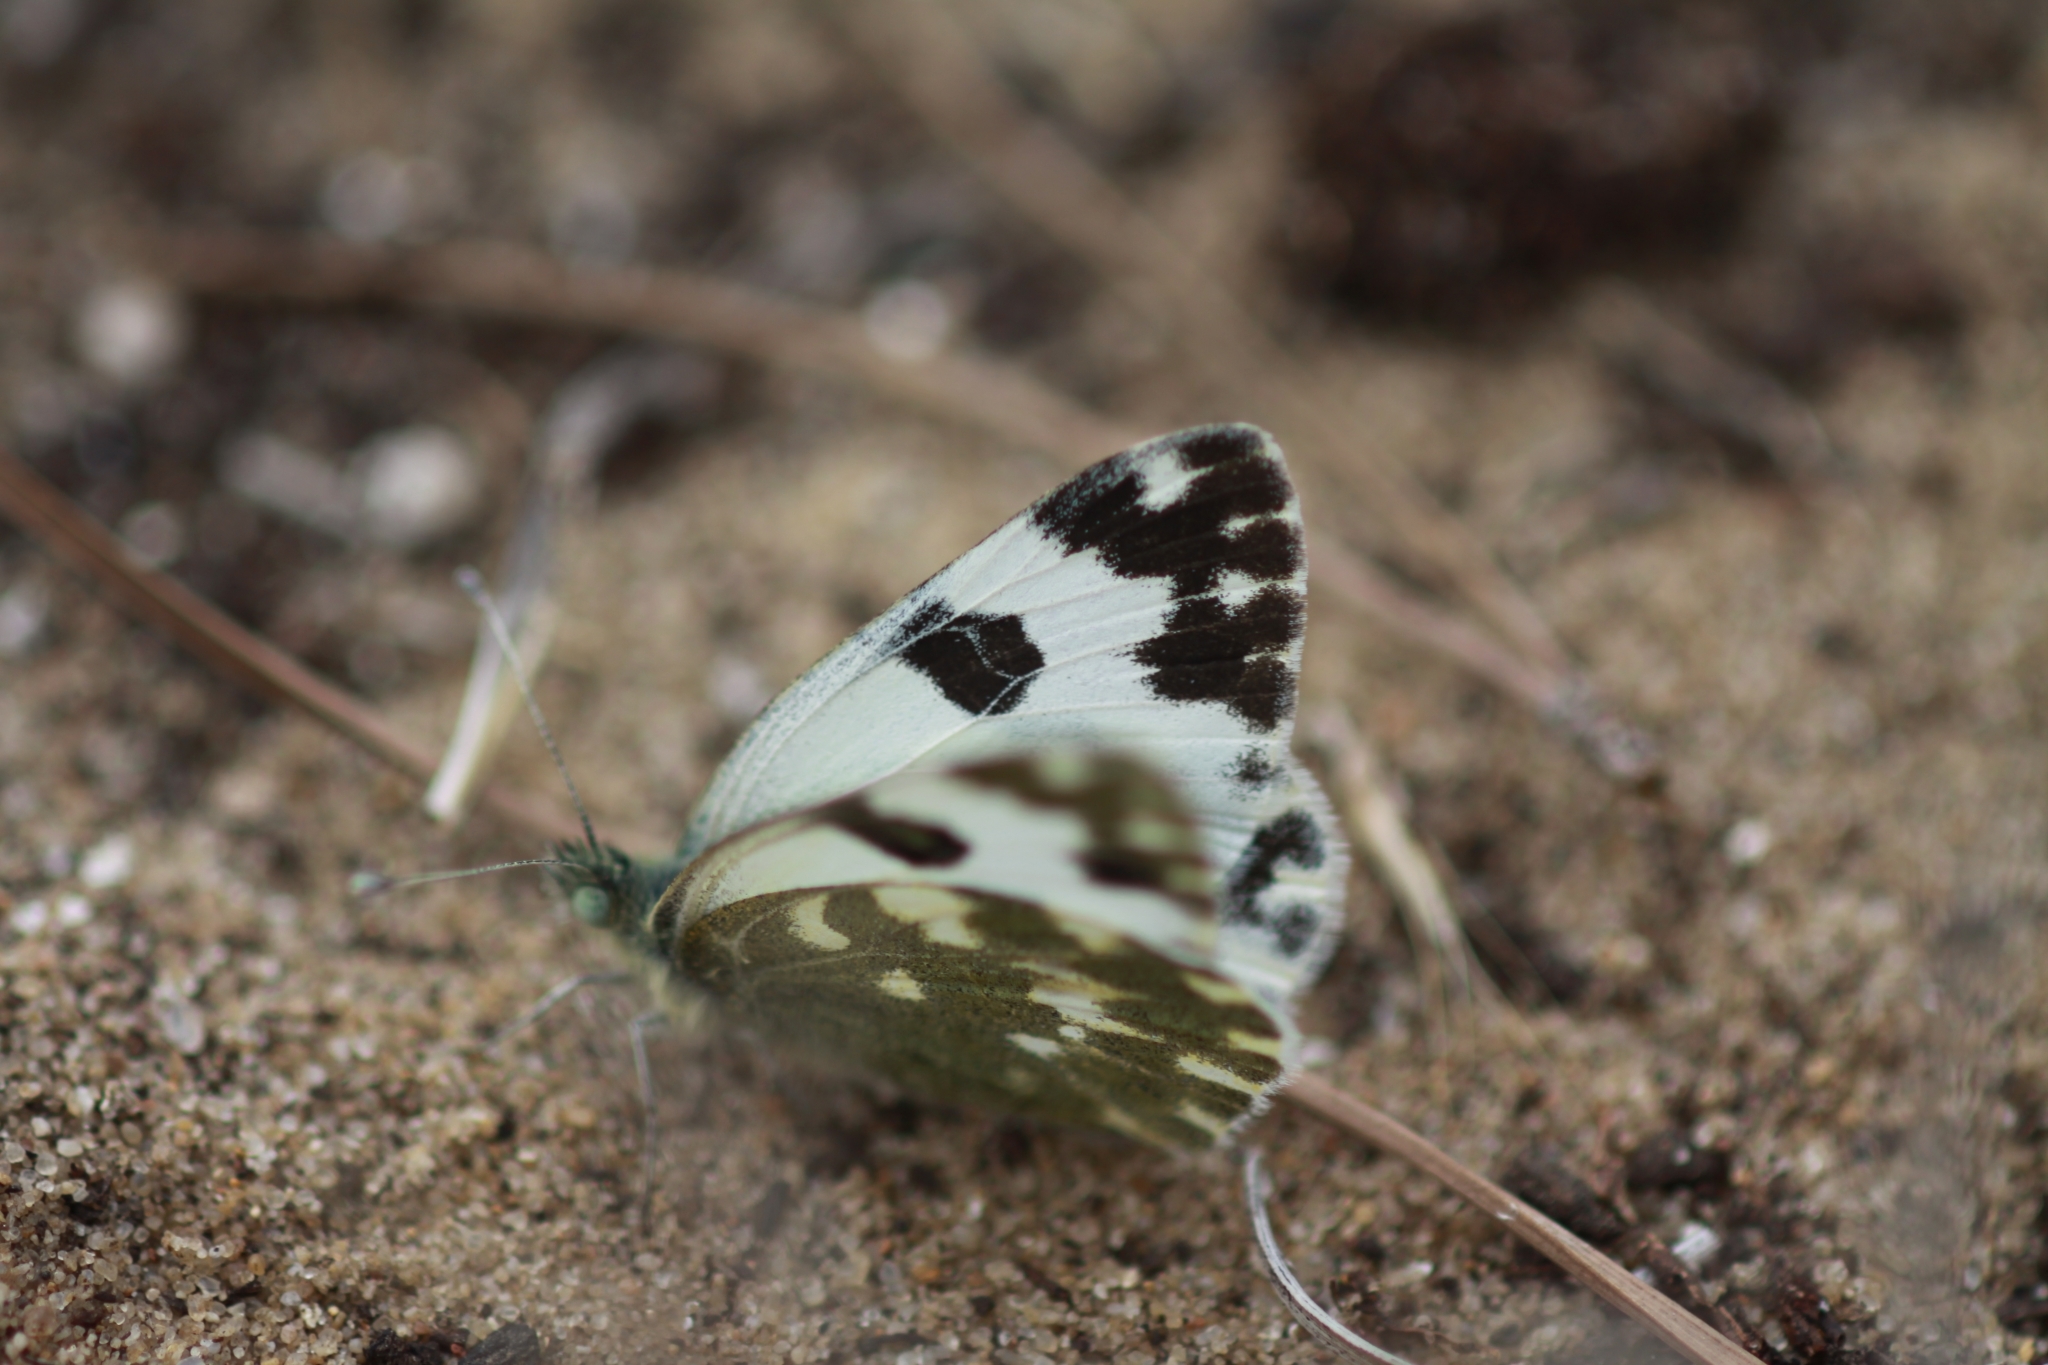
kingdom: Animalia
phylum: Arthropoda
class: Insecta
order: Lepidoptera
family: Pieridae
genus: Pontia
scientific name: Pontia daplidice
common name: Bath white
